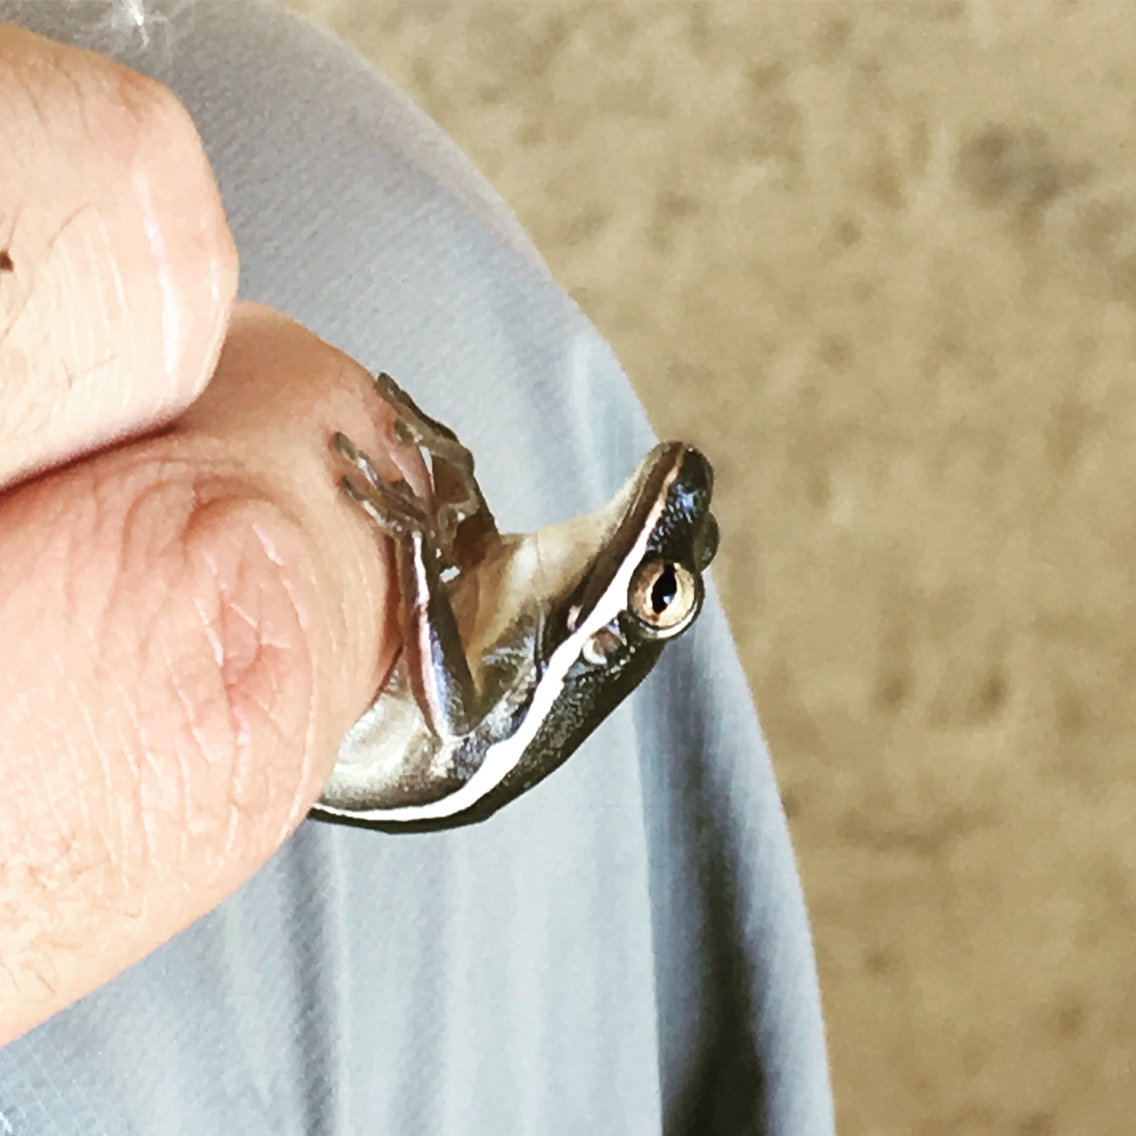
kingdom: Animalia
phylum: Chordata
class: Amphibia
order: Anura
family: Hylidae
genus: Dryophytes
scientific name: Dryophytes cinereus
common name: Green treefrog
